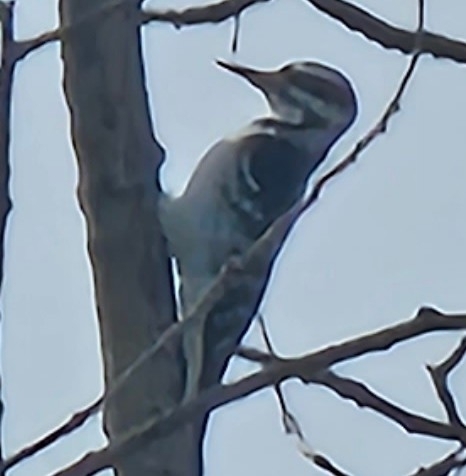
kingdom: Animalia
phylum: Chordata
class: Aves
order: Piciformes
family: Picidae
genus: Leuconotopicus
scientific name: Leuconotopicus villosus
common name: Hairy woodpecker
